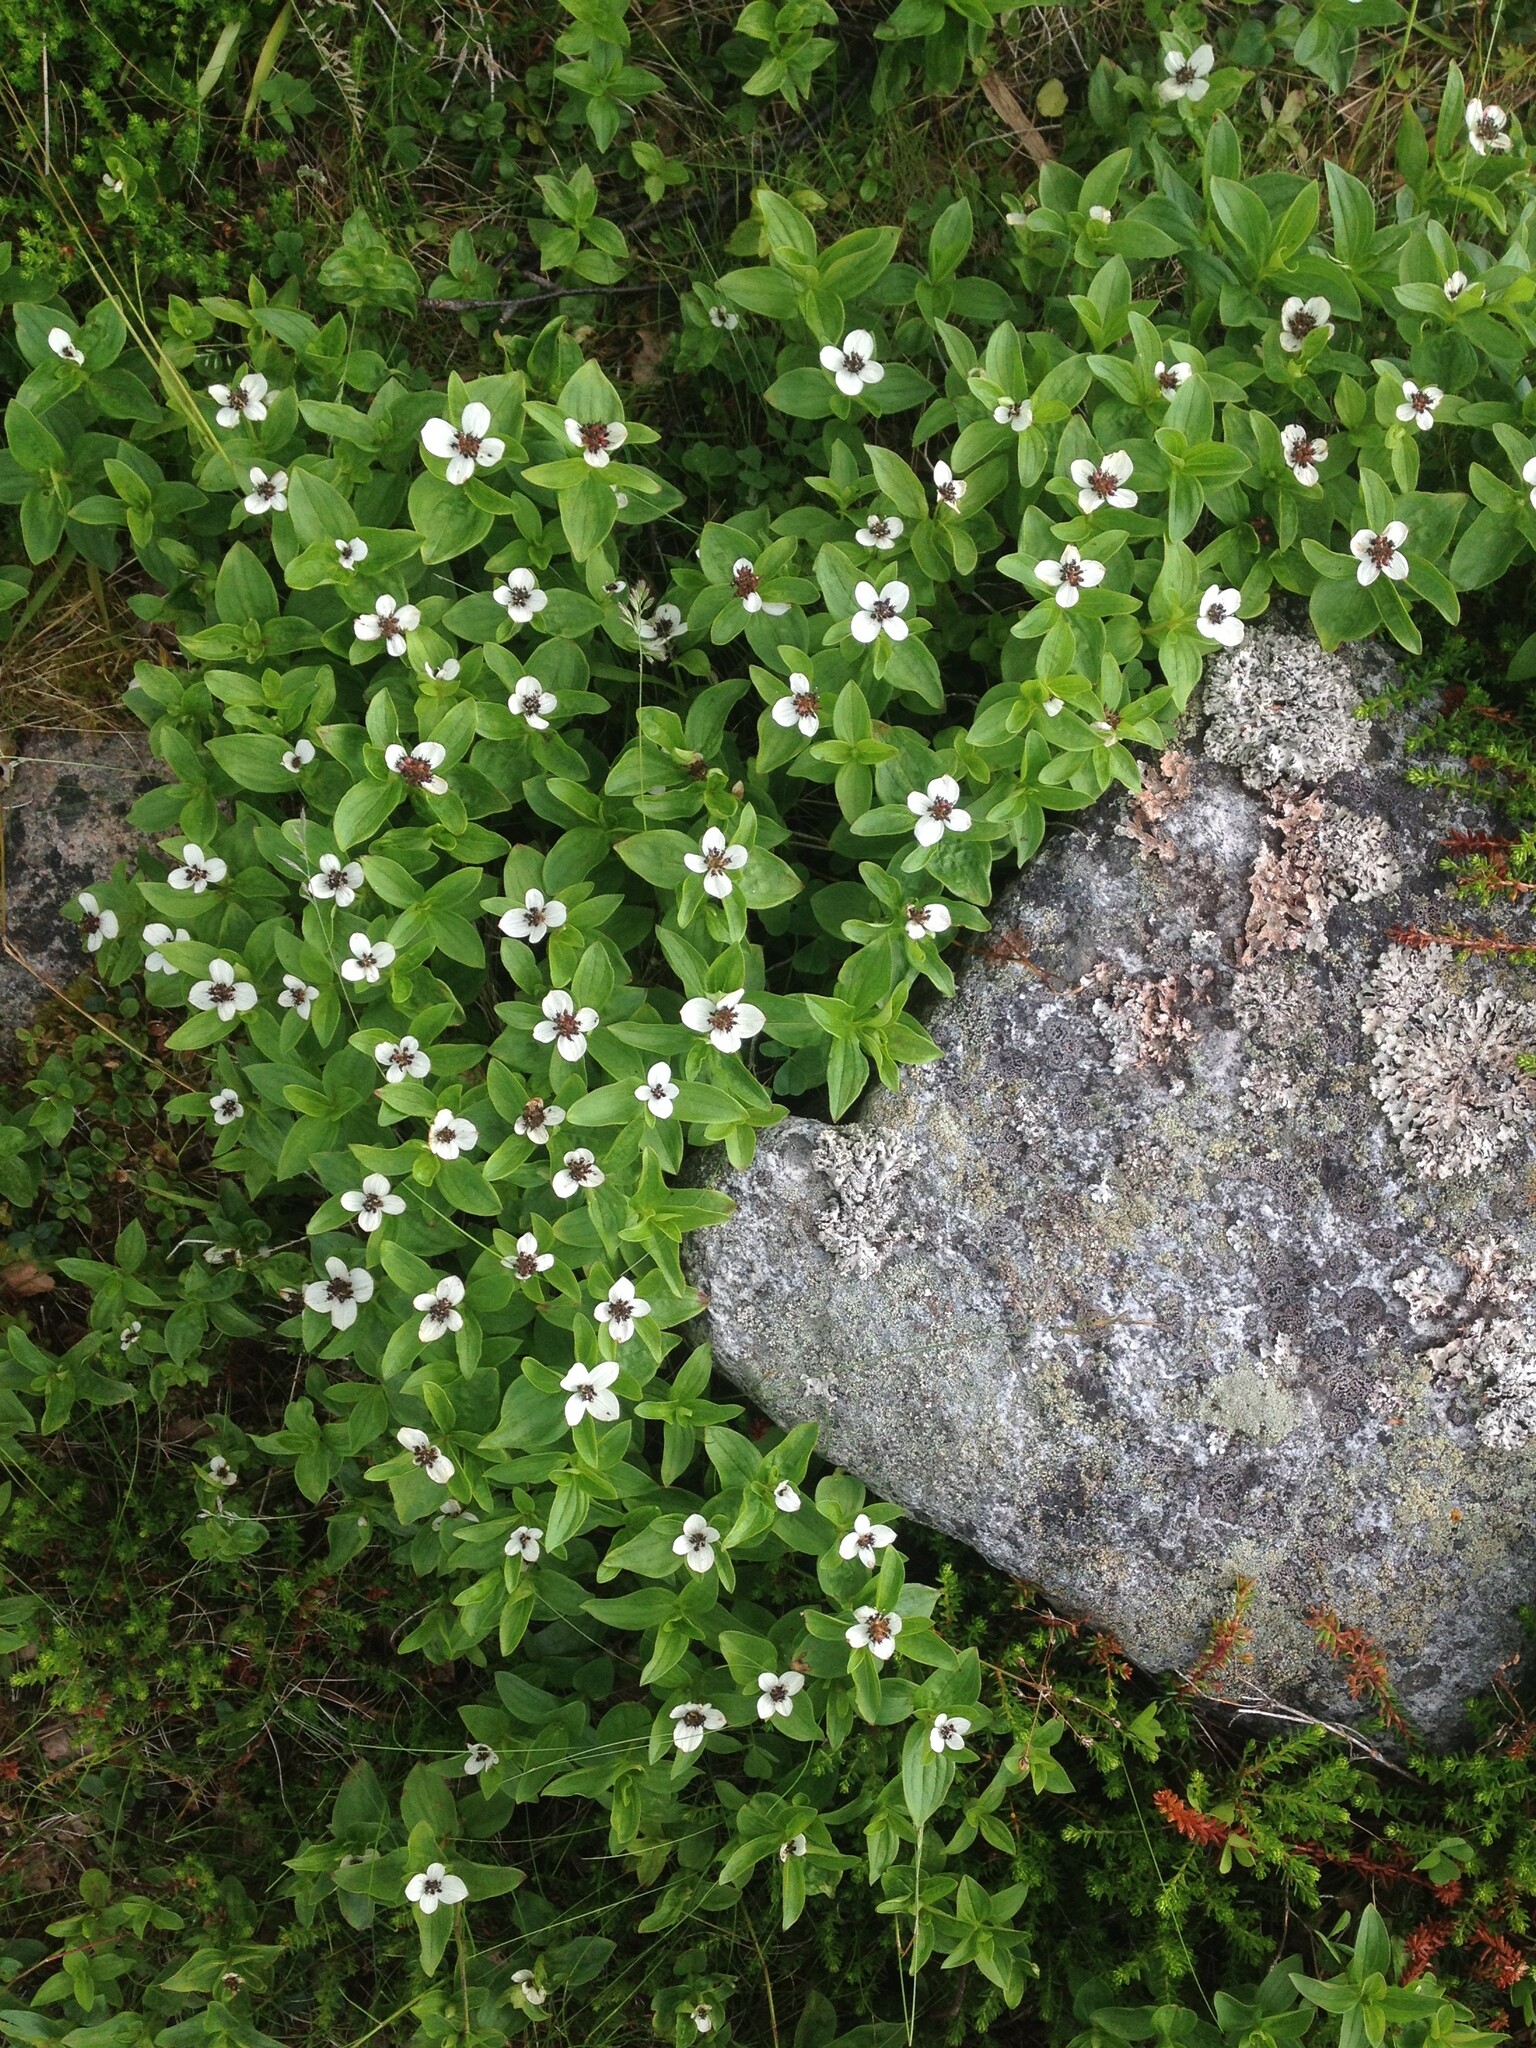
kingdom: Plantae
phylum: Tracheophyta
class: Magnoliopsida
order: Cornales
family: Cornaceae
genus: Cornus
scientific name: Cornus suecica
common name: Dwarf cornel
